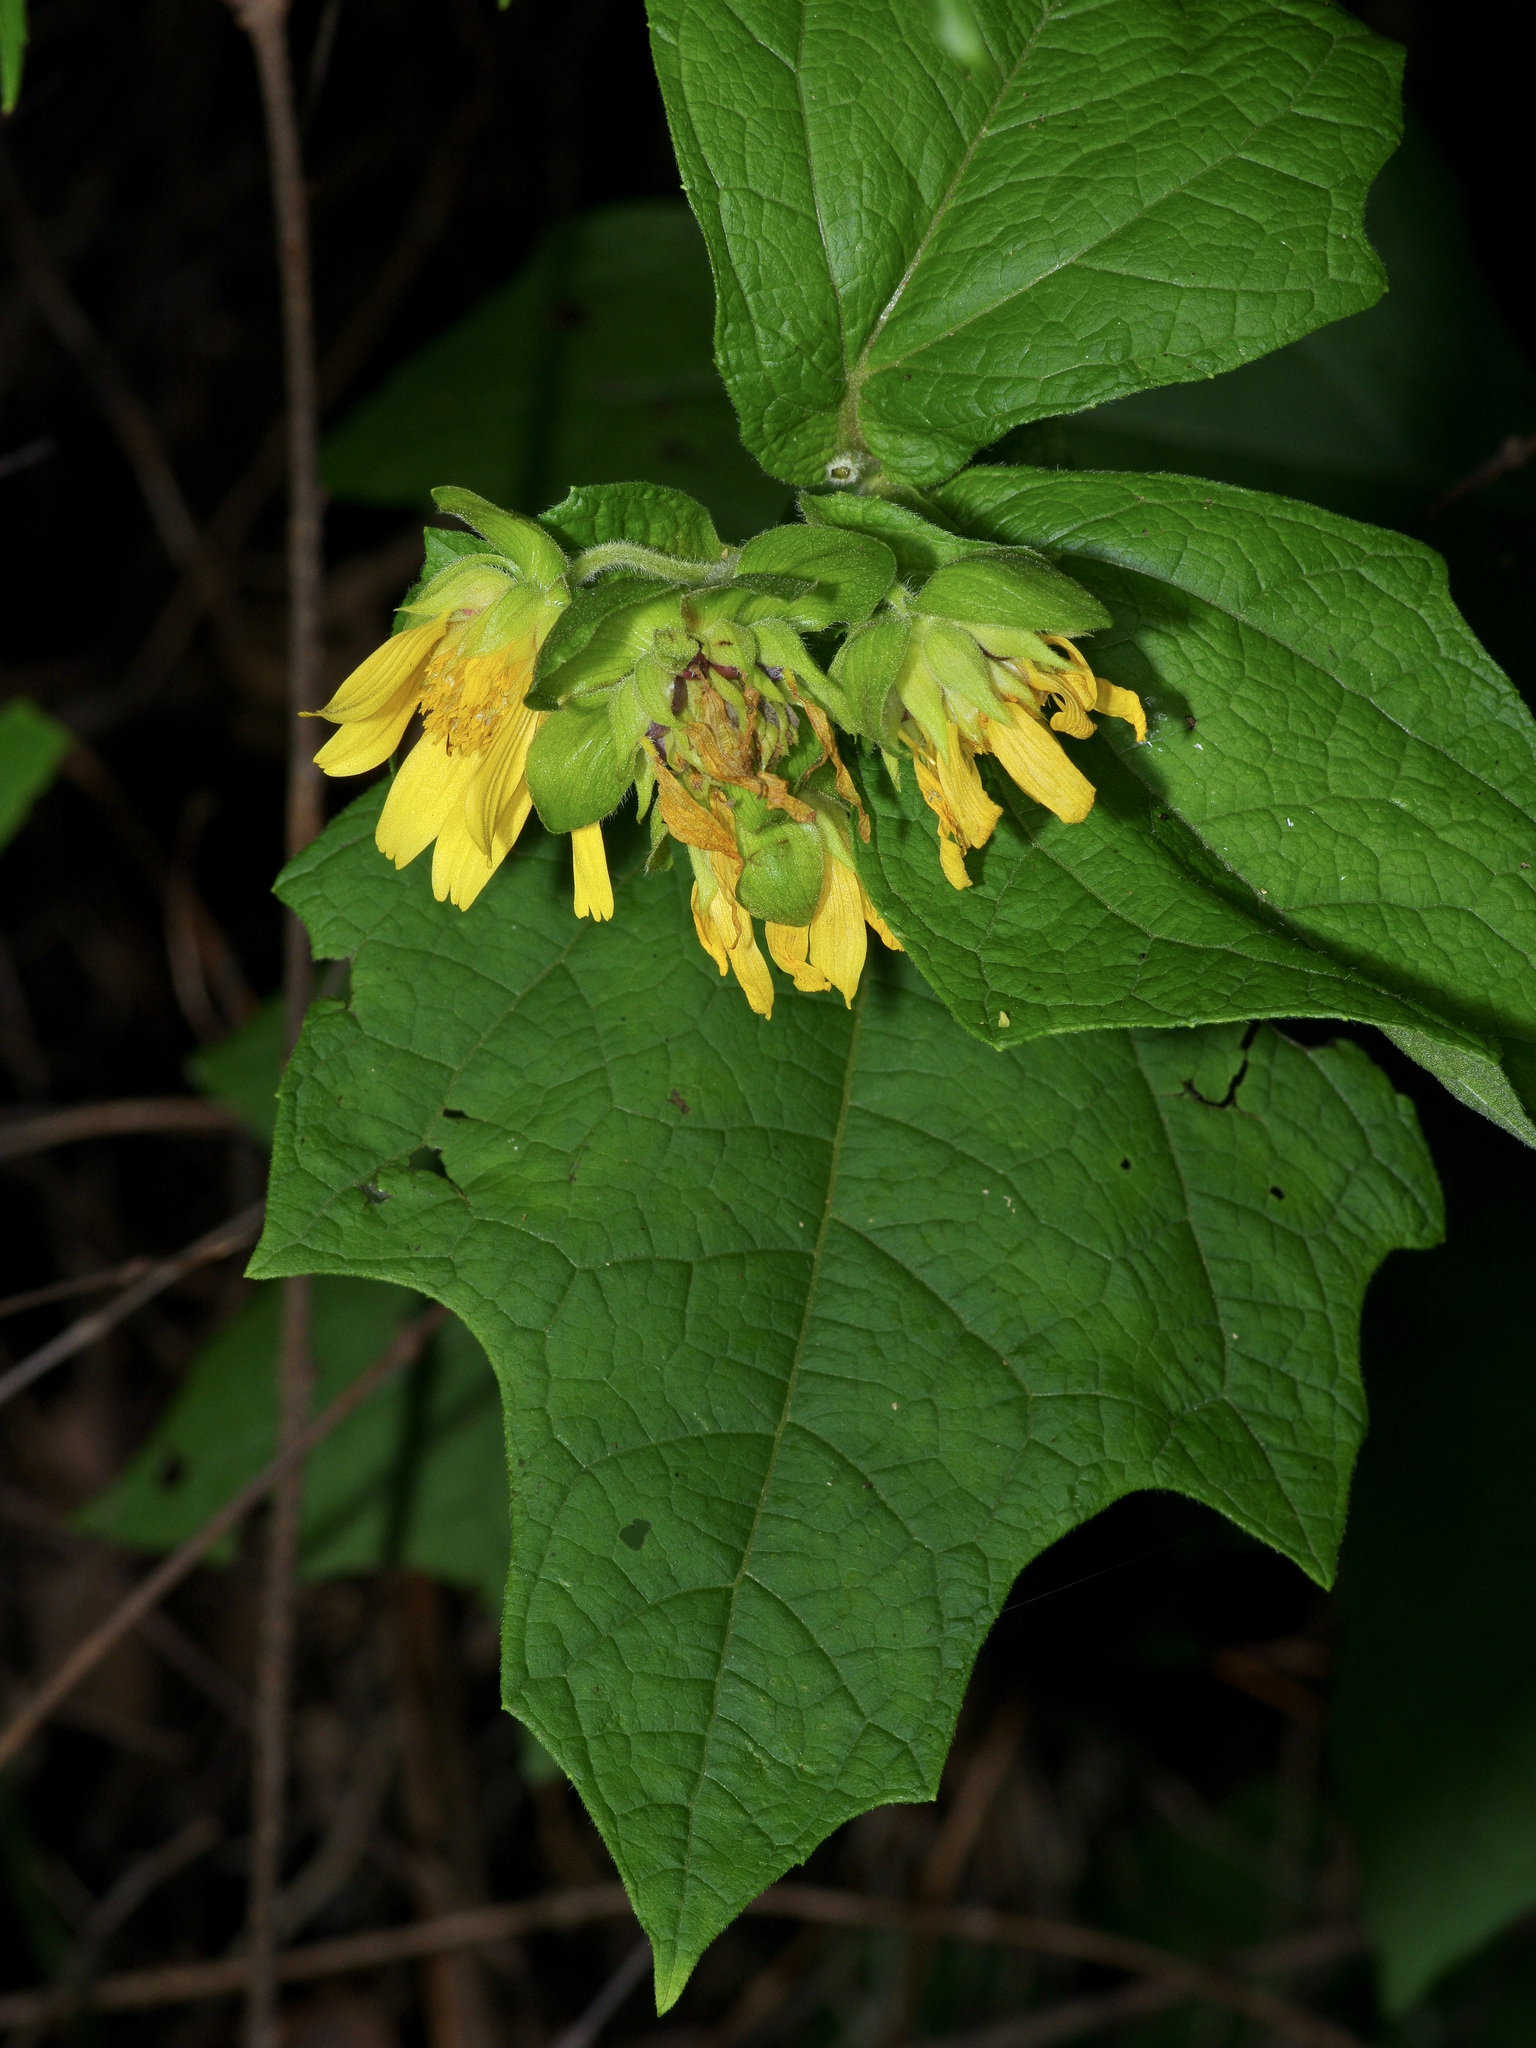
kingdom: Plantae
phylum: Tracheophyta
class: Magnoliopsida
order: Asterales
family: Asteraceae
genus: Smallanthus
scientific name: Smallanthus uvedalia
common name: Bear's-foot
